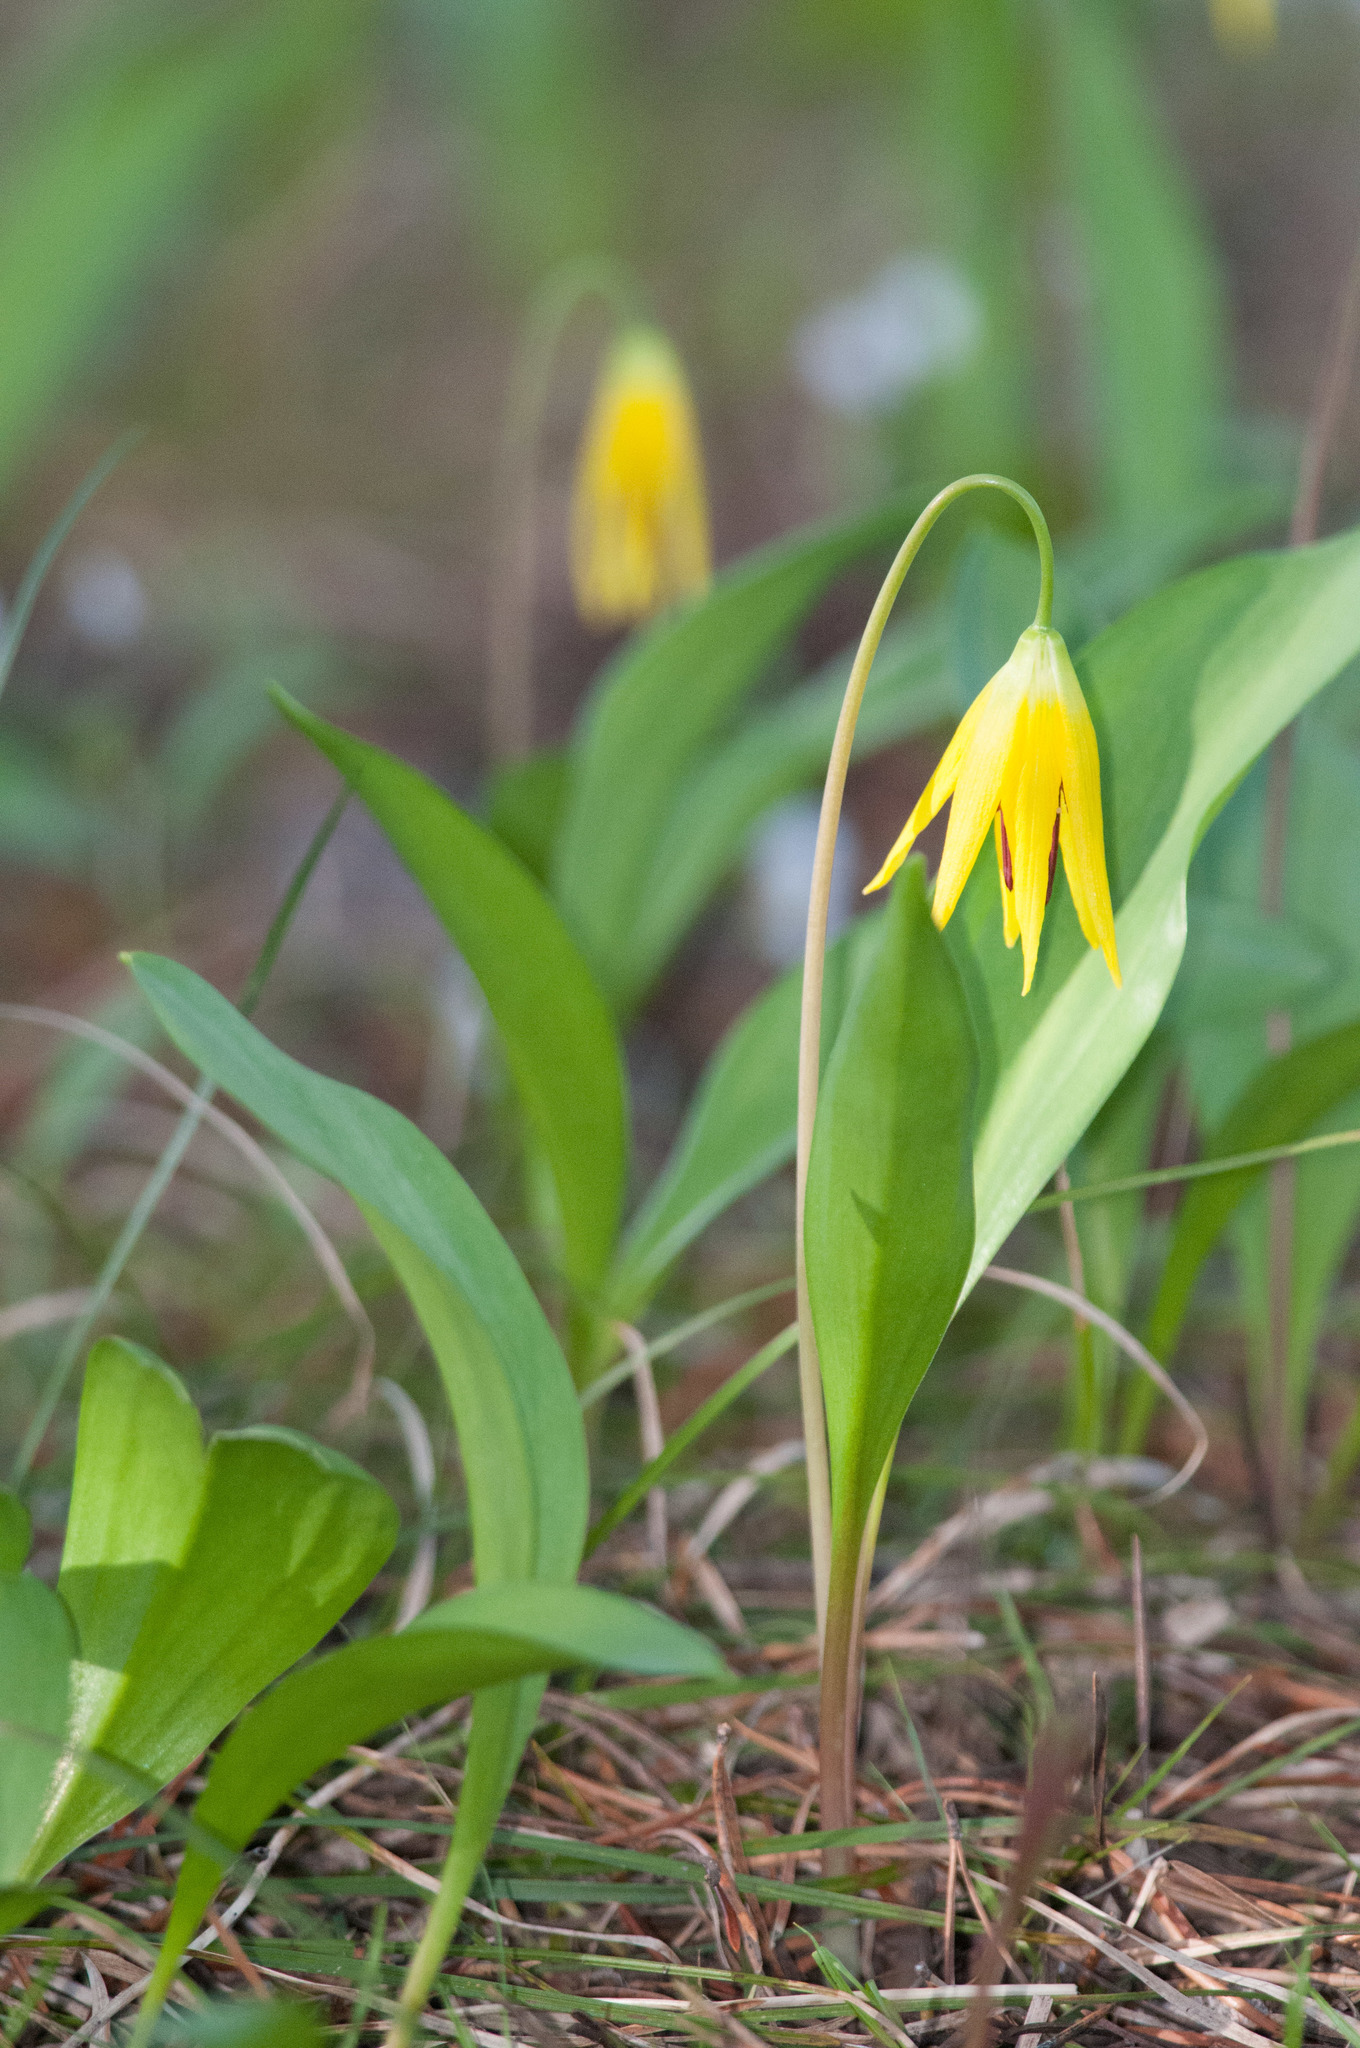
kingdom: Plantae
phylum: Tracheophyta
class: Liliopsida
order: Liliales
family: Liliaceae
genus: Erythronium
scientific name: Erythronium grandiflorum
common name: Avalanche-lily
